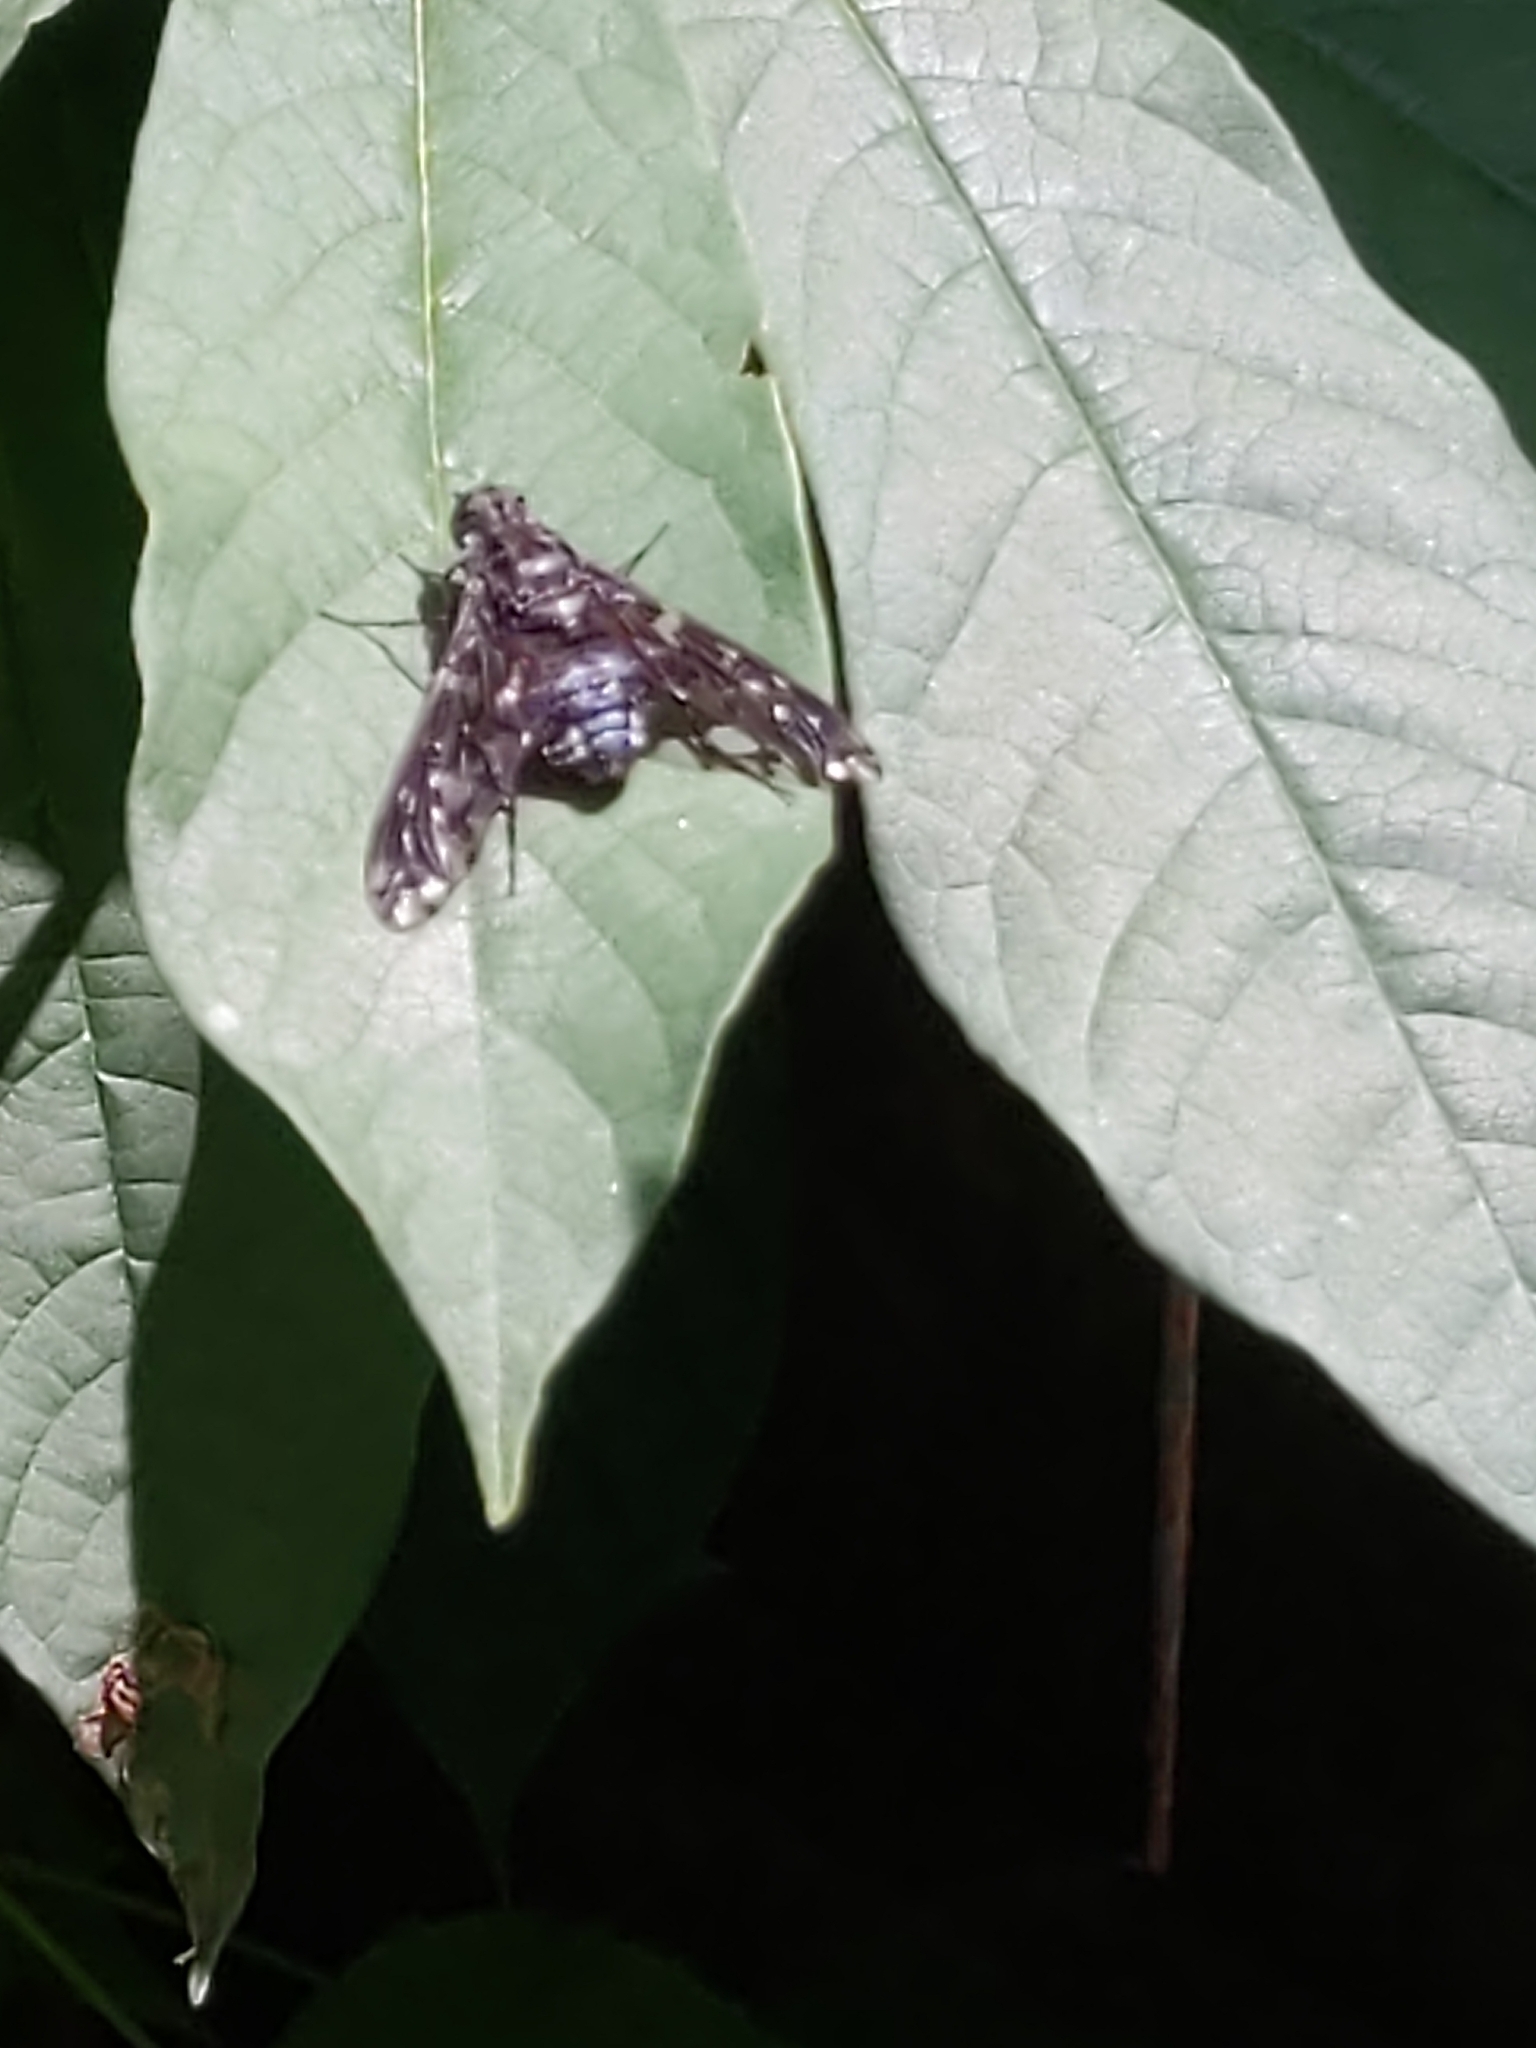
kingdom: Animalia
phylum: Arthropoda
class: Insecta
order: Diptera
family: Bombyliidae
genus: Xenox
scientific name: Xenox tigrinus
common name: Tiger bee fly
